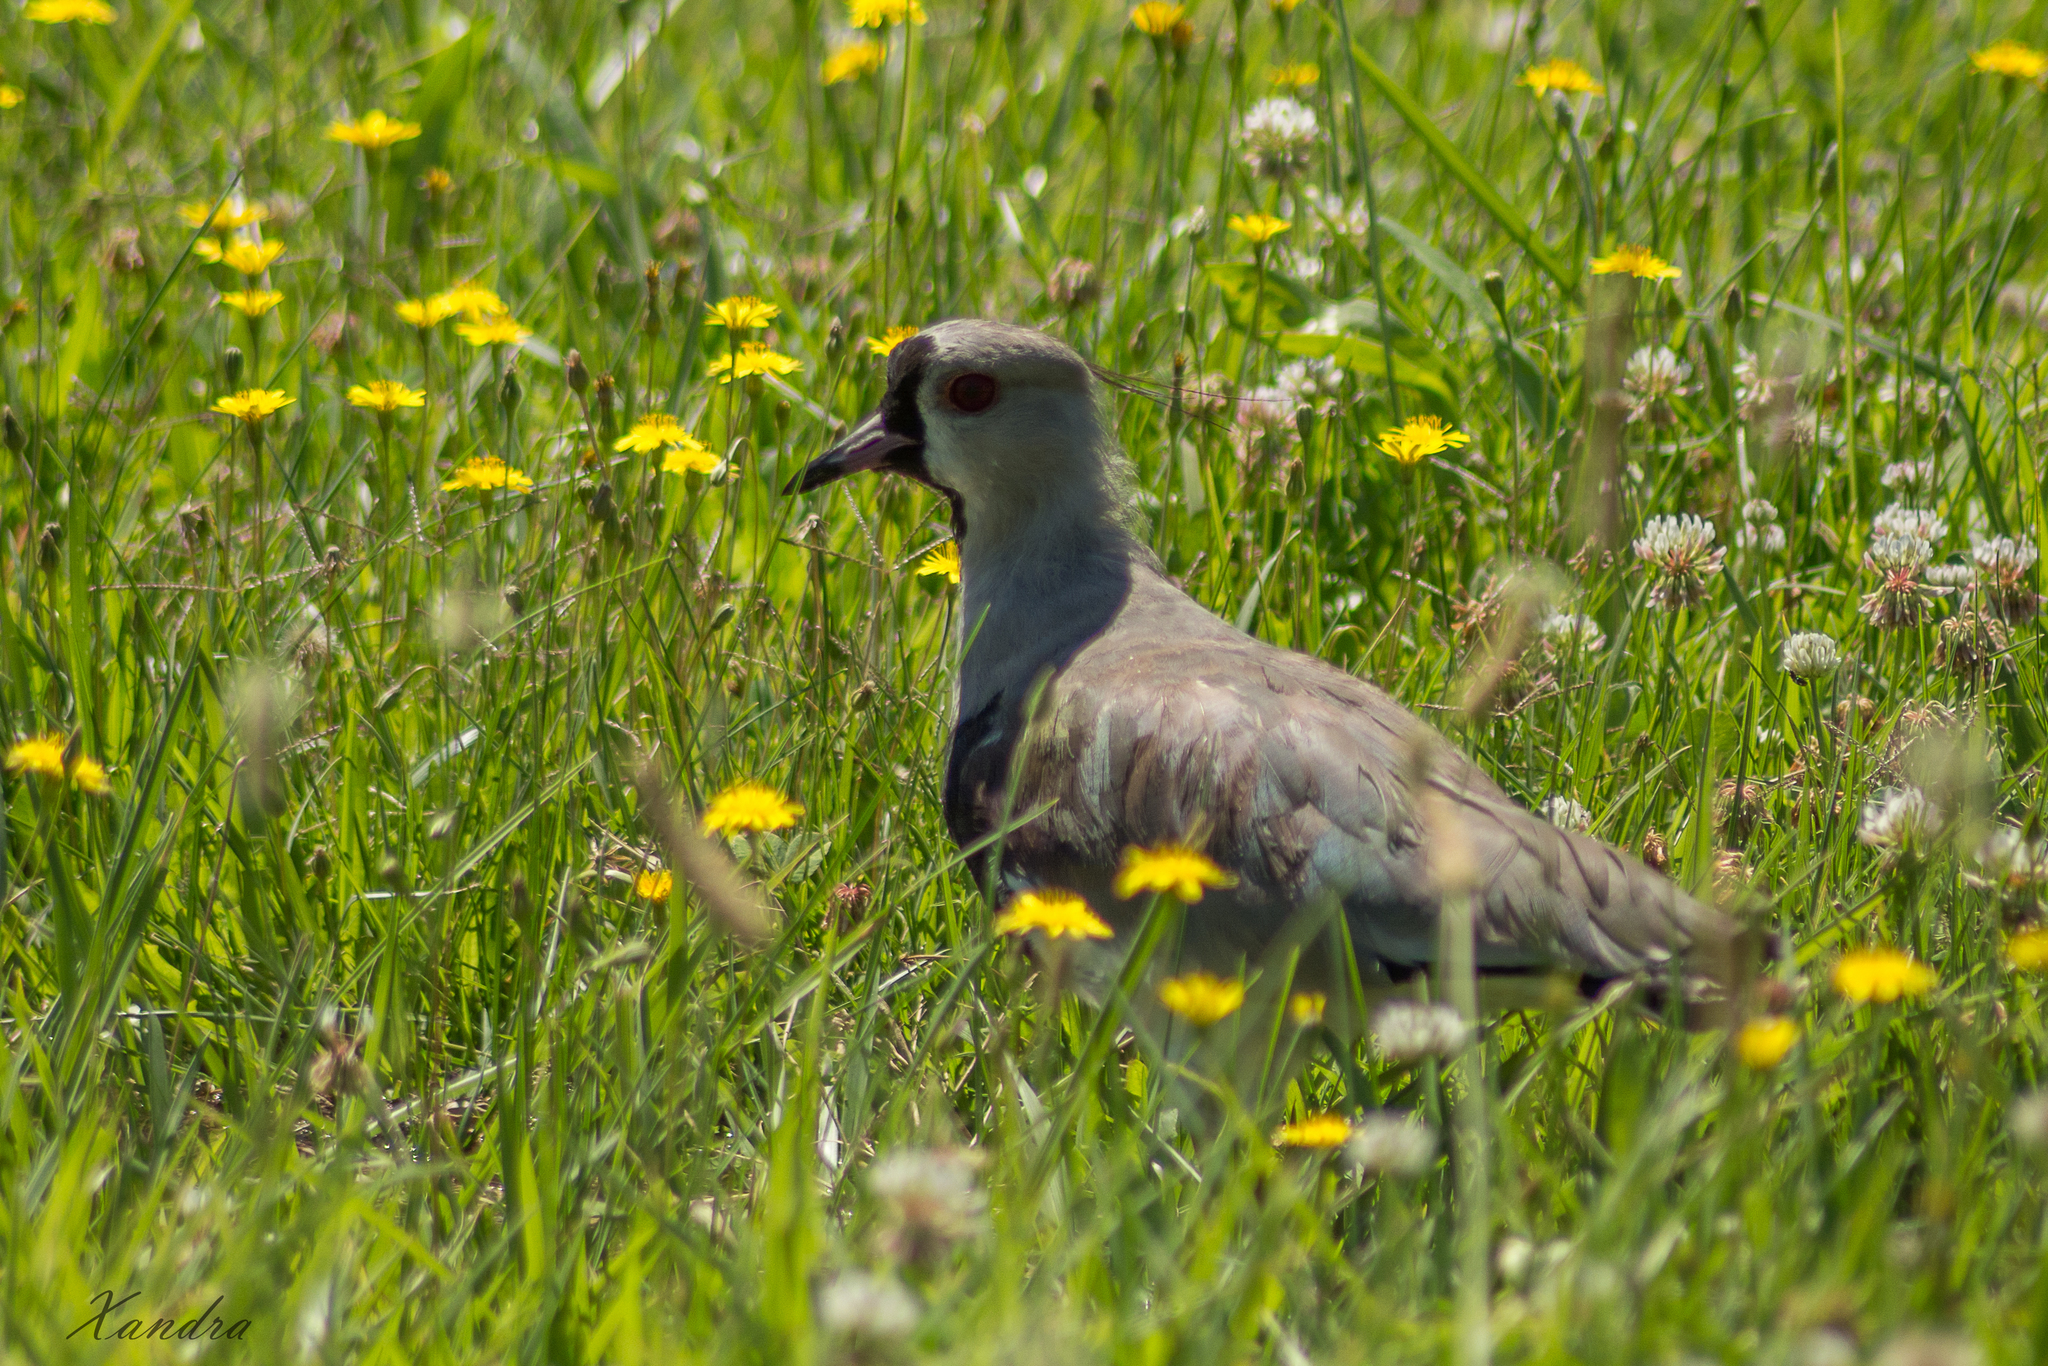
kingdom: Animalia
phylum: Chordata
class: Aves
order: Charadriiformes
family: Charadriidae
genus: Vanellus
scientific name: Vanellus chilensis
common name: Southern lapwing
